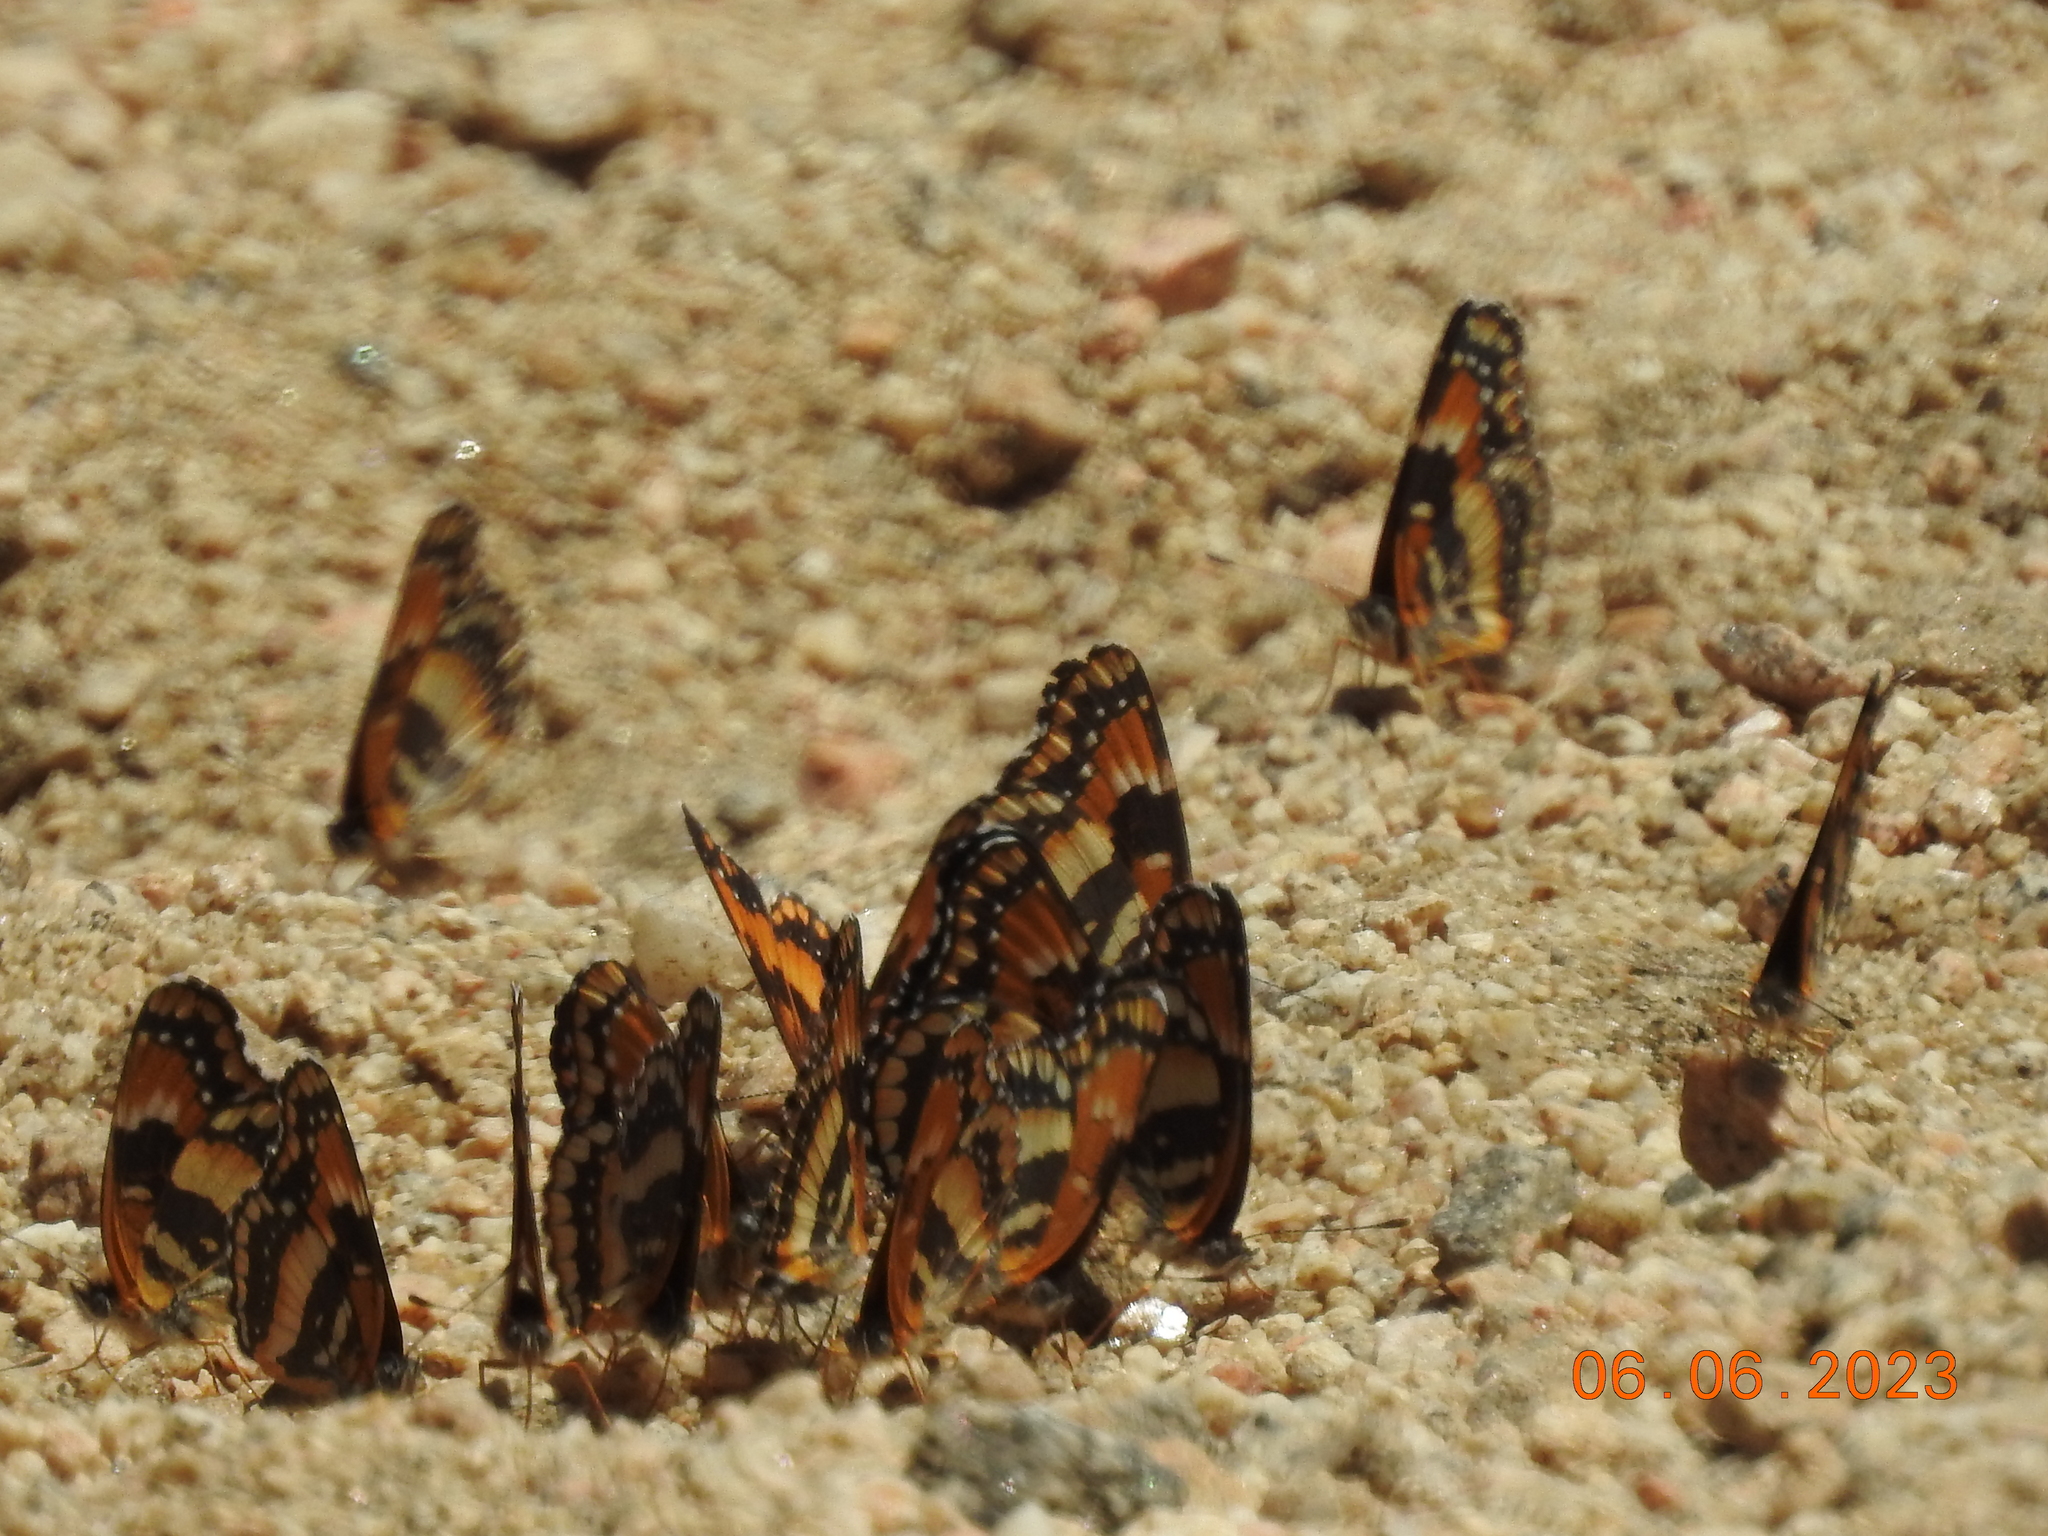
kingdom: Animalia
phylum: Arthropoda
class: Insecta
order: Lepidoptera
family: Nymphalidae
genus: Chlosyne
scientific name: Chlosyne californica
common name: California patch
